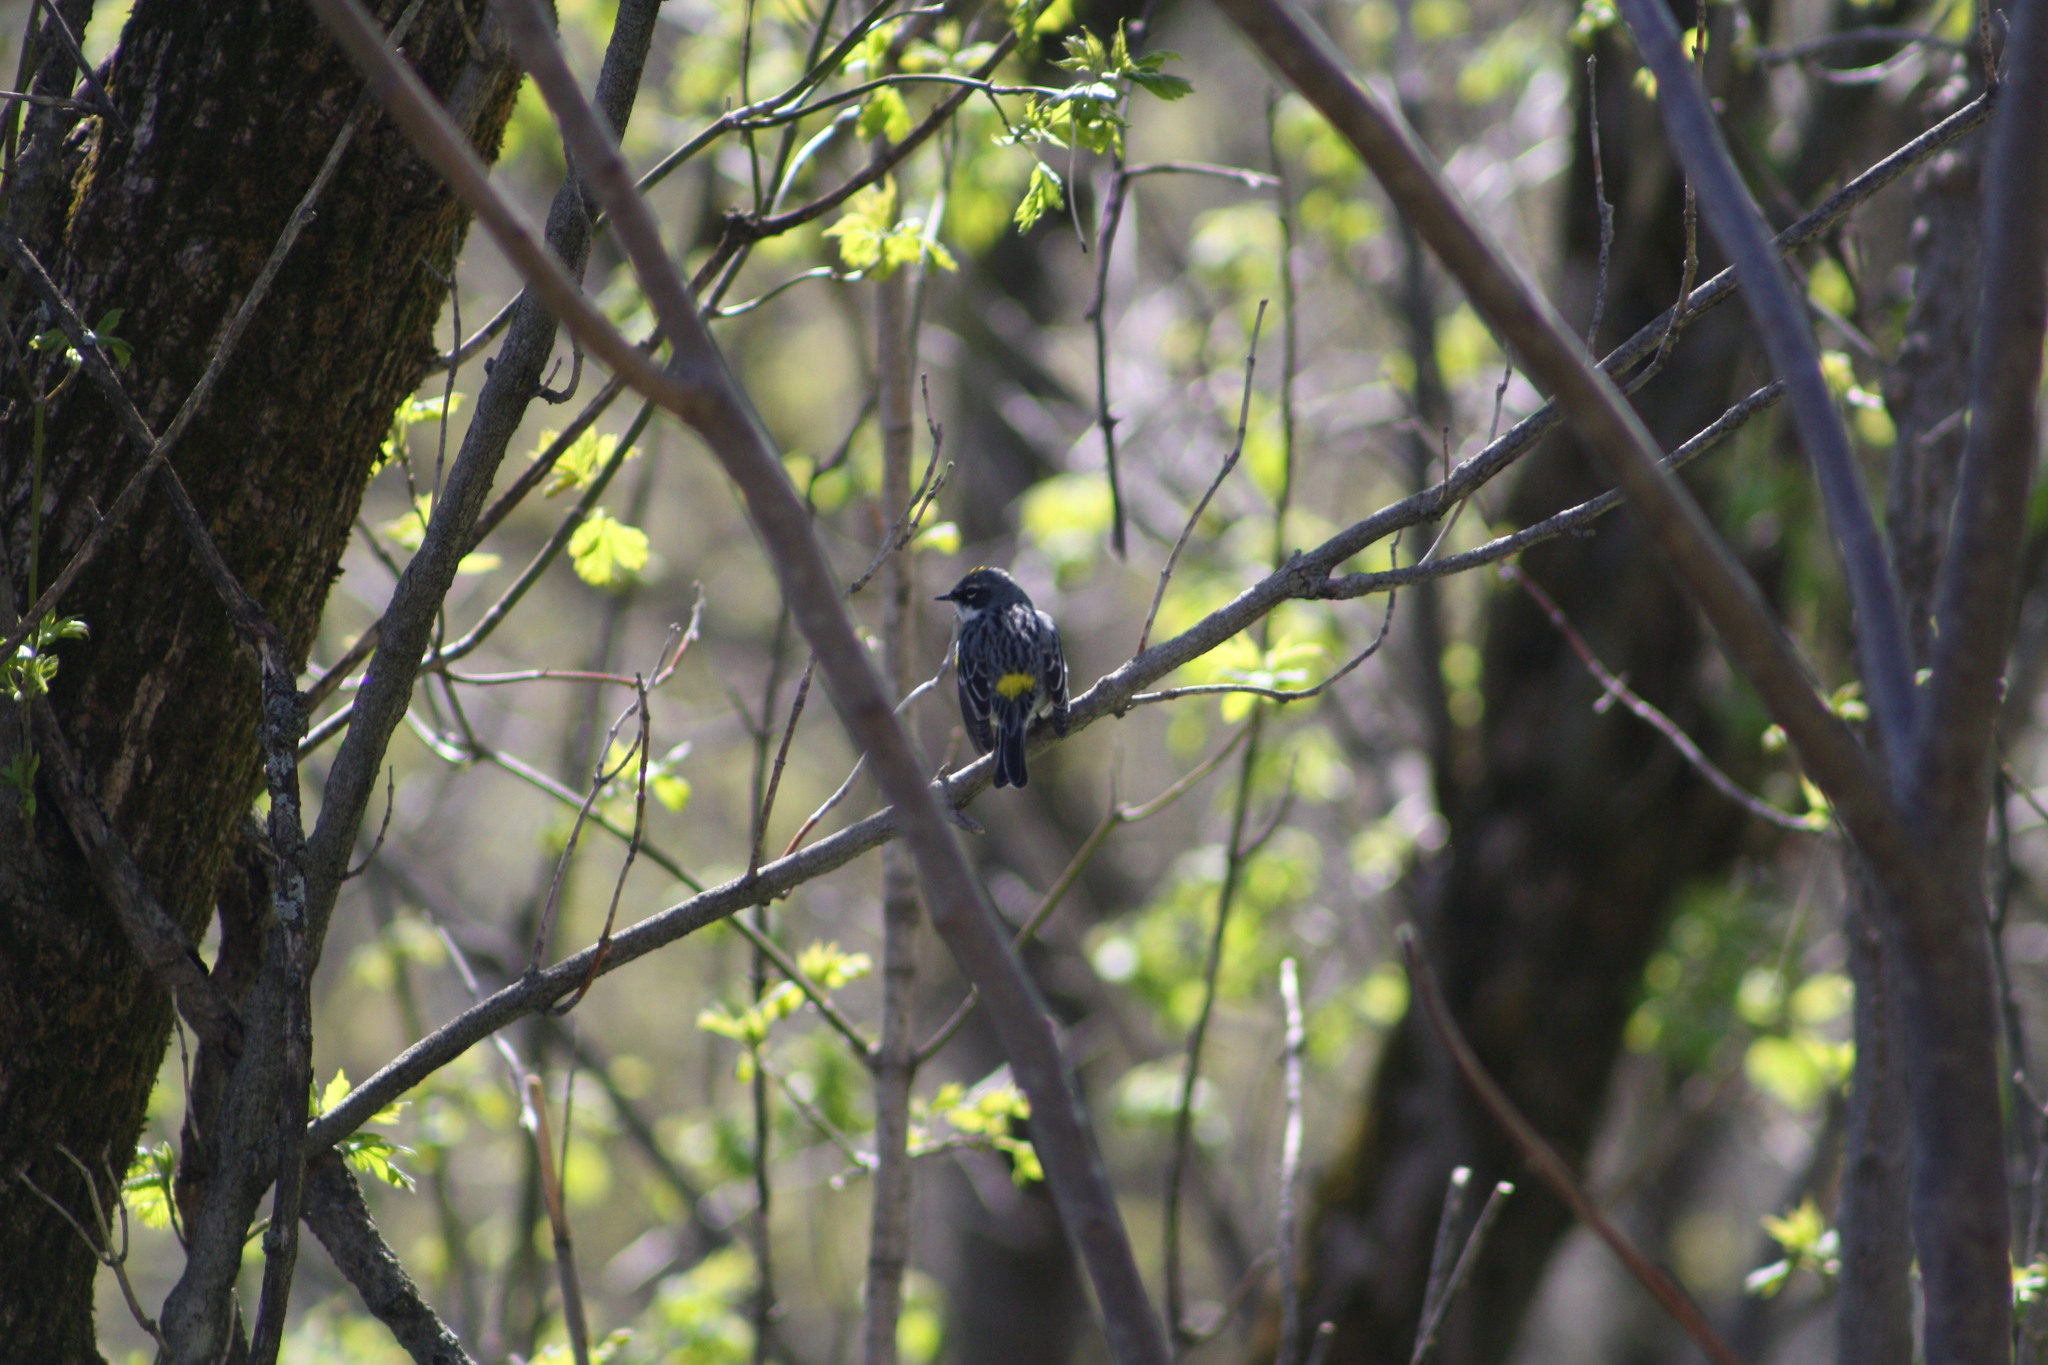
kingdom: Animalia
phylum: Chordata
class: Aves
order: Passeriformes
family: Parulidae
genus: Setophaga
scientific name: Setophaga coronata
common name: Myrtle warbler
